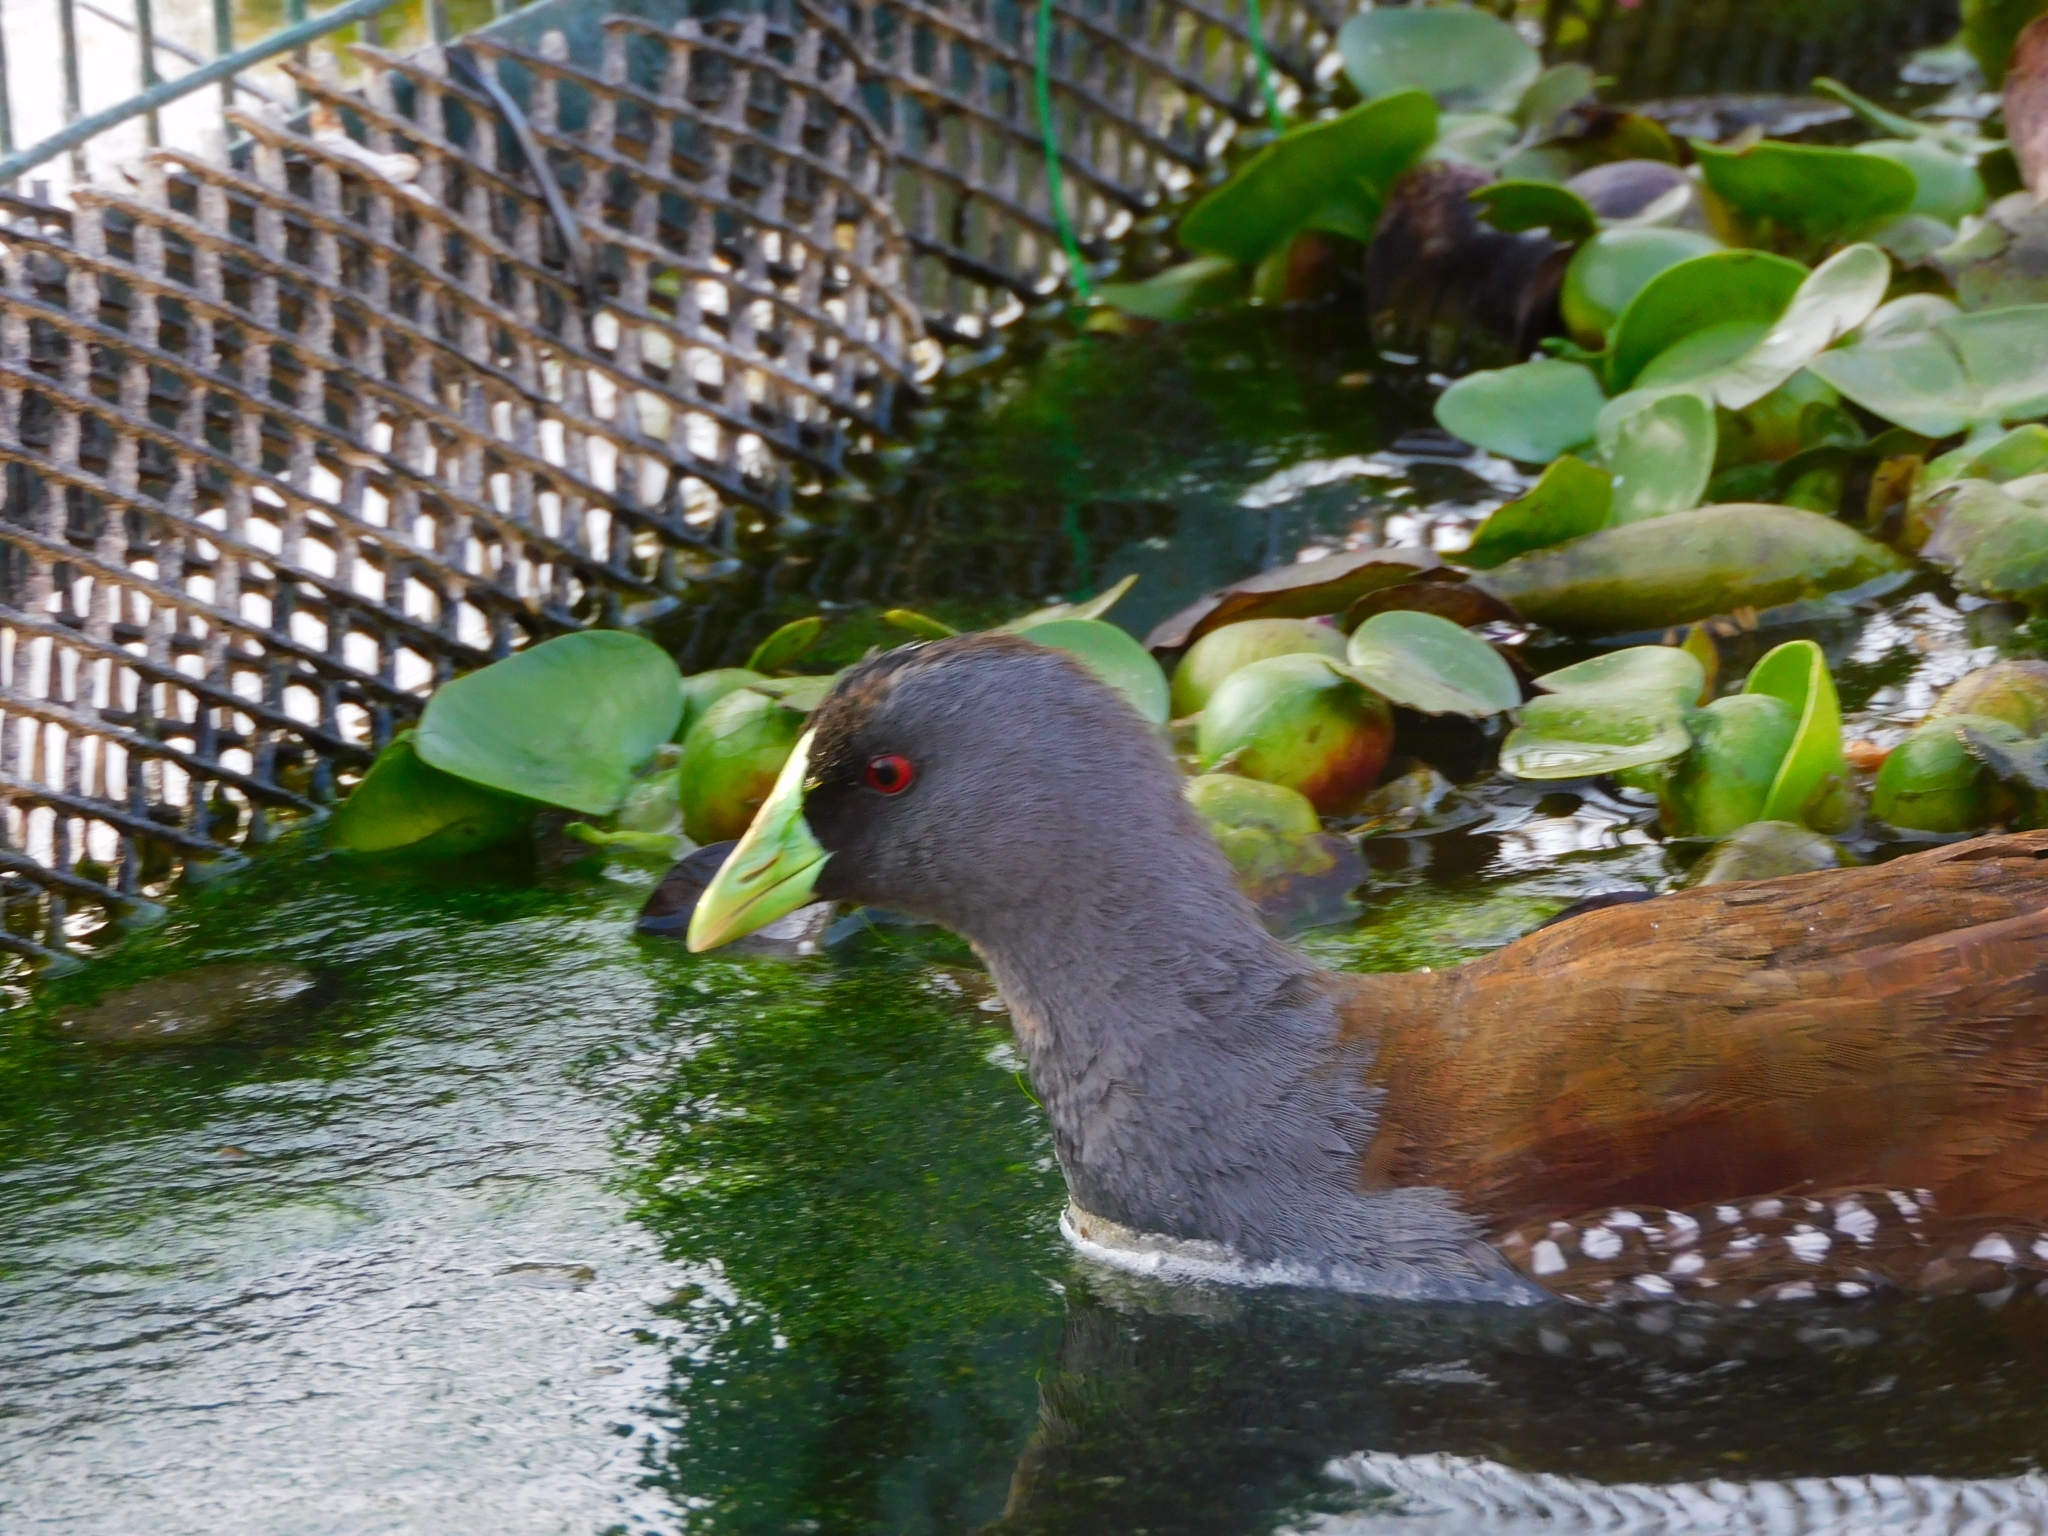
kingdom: Animalia
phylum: Chordata
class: Aves
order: Gruiformes
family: Rallidae
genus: Gallinula
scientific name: Gallinula melanops
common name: Spot-flanked gallinule
